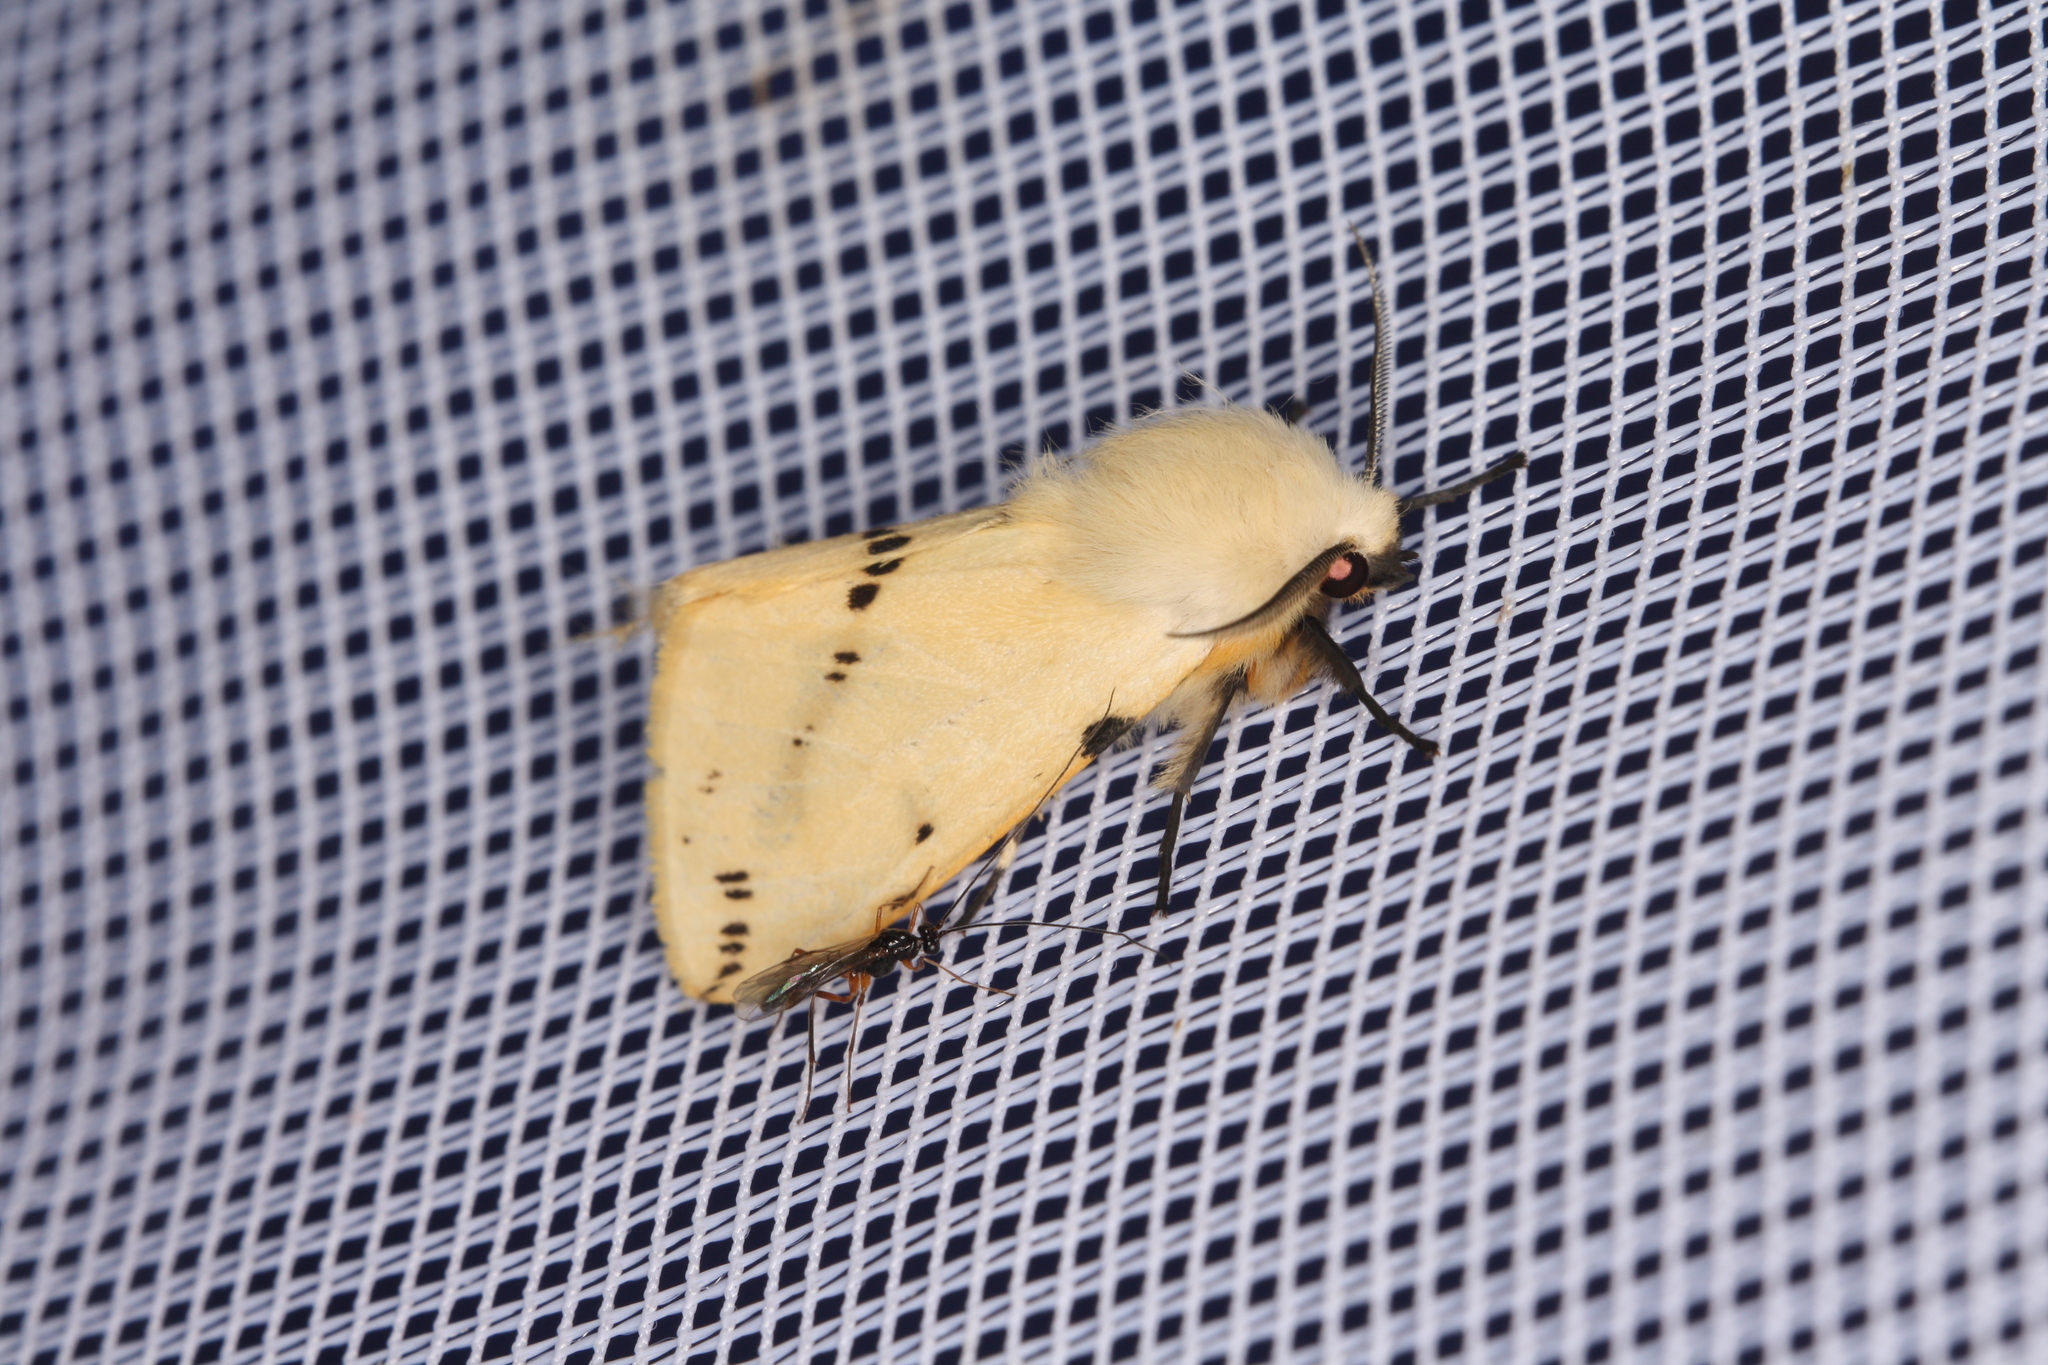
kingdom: Animalia
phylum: Arthropoda
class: Insecta
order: Lepidoptera
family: Erebidae
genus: Spilarctia
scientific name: Spilarctia lutea
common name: Buff ermine
